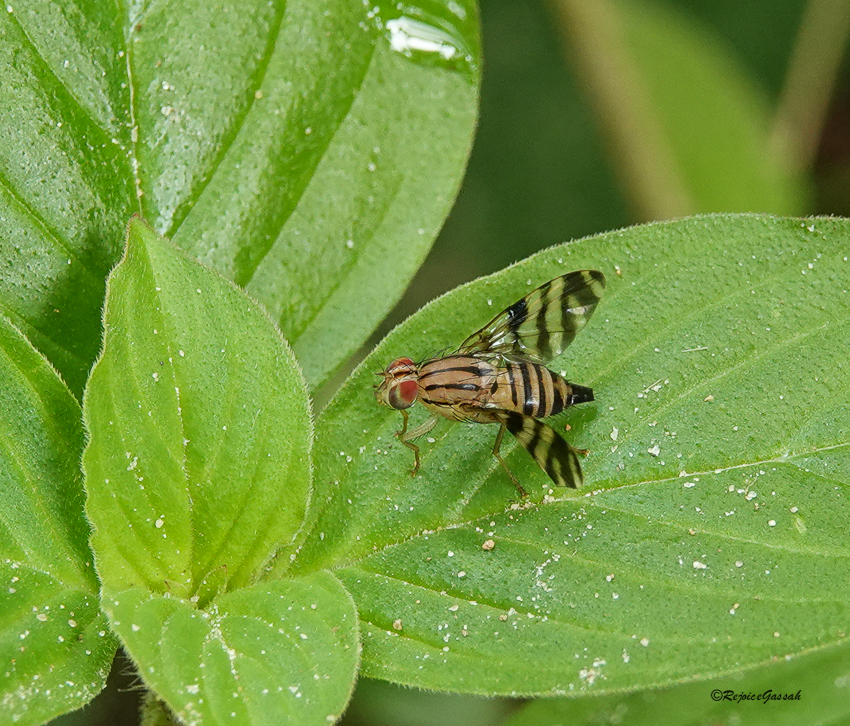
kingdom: Animalia
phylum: Arthropoda
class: Insecta
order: Diptera
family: Tephritidae
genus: Taeniostola
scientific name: Taeniostola vittigera
